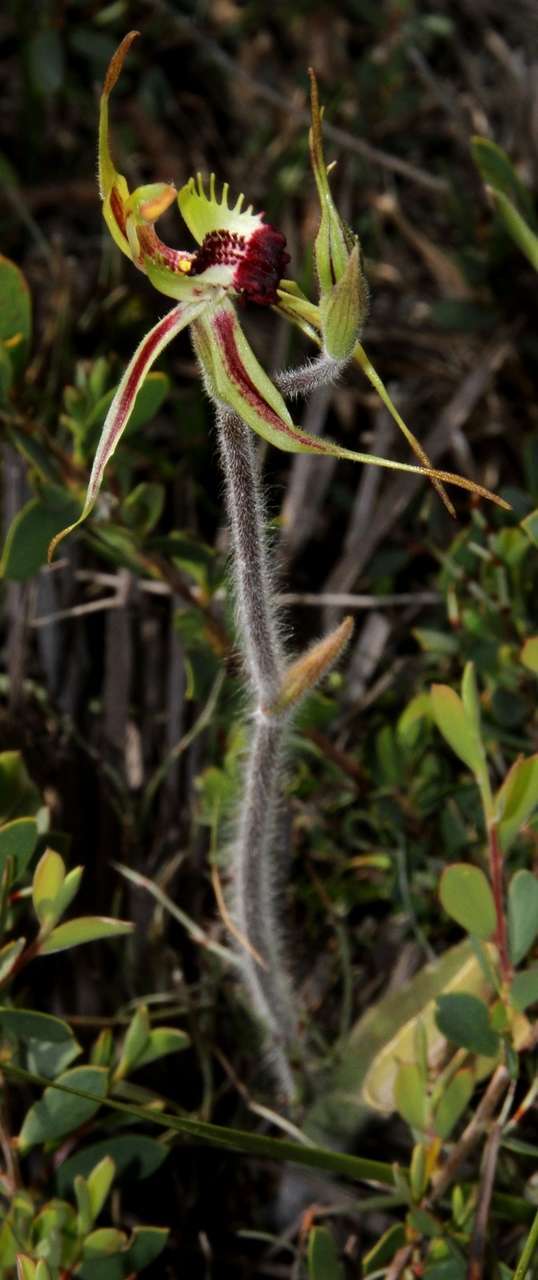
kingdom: Plantae
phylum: Tracheophyta
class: Liliopsida
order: Asparagales
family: Orchidaceae
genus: Caladenia
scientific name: Caladenia parva
